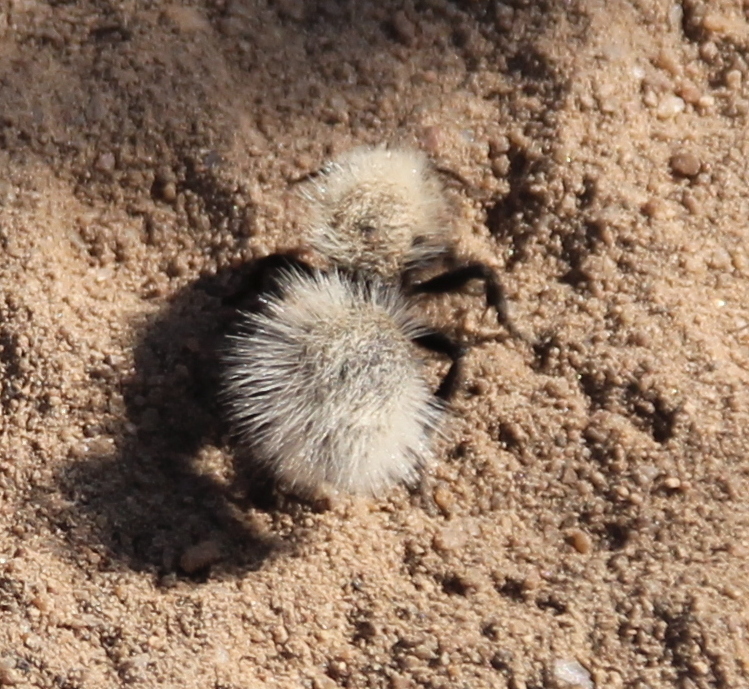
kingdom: Animalia
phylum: Arthropoda
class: Insecta
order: Hymenoptera
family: Mutillidae
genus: Dasymutilla
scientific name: Dasymutilla
